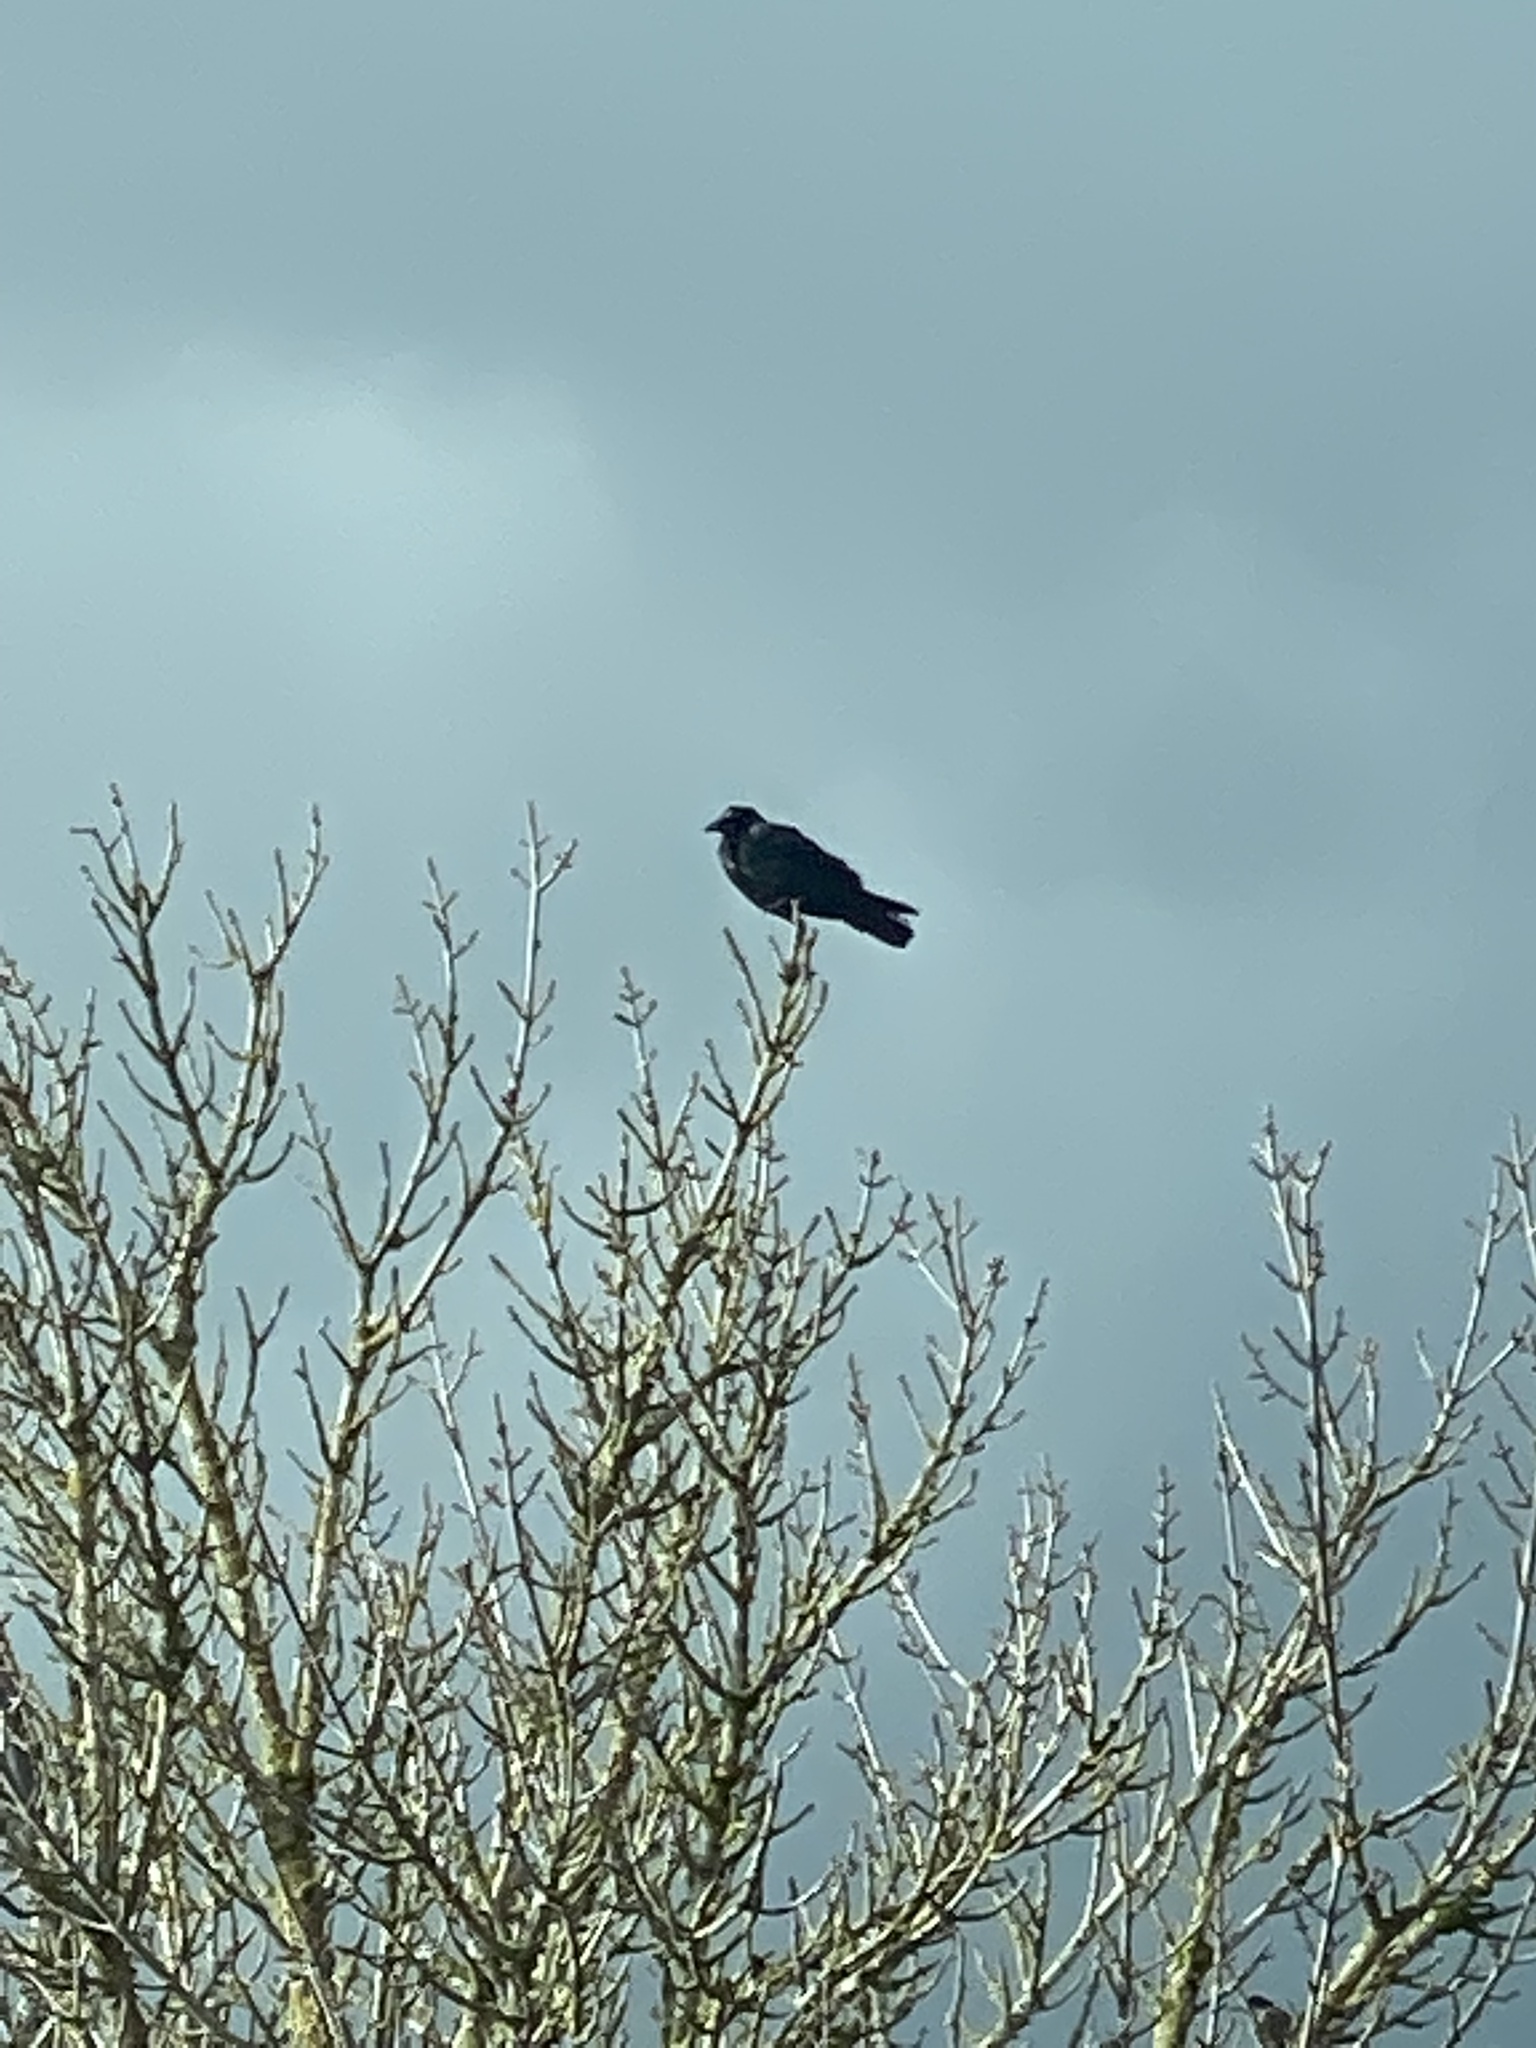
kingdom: Animalia
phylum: Chordata
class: Aves
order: Passeriformes
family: Corvidae
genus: Corvus
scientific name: Corvus brachyrhynchos
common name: American crow
